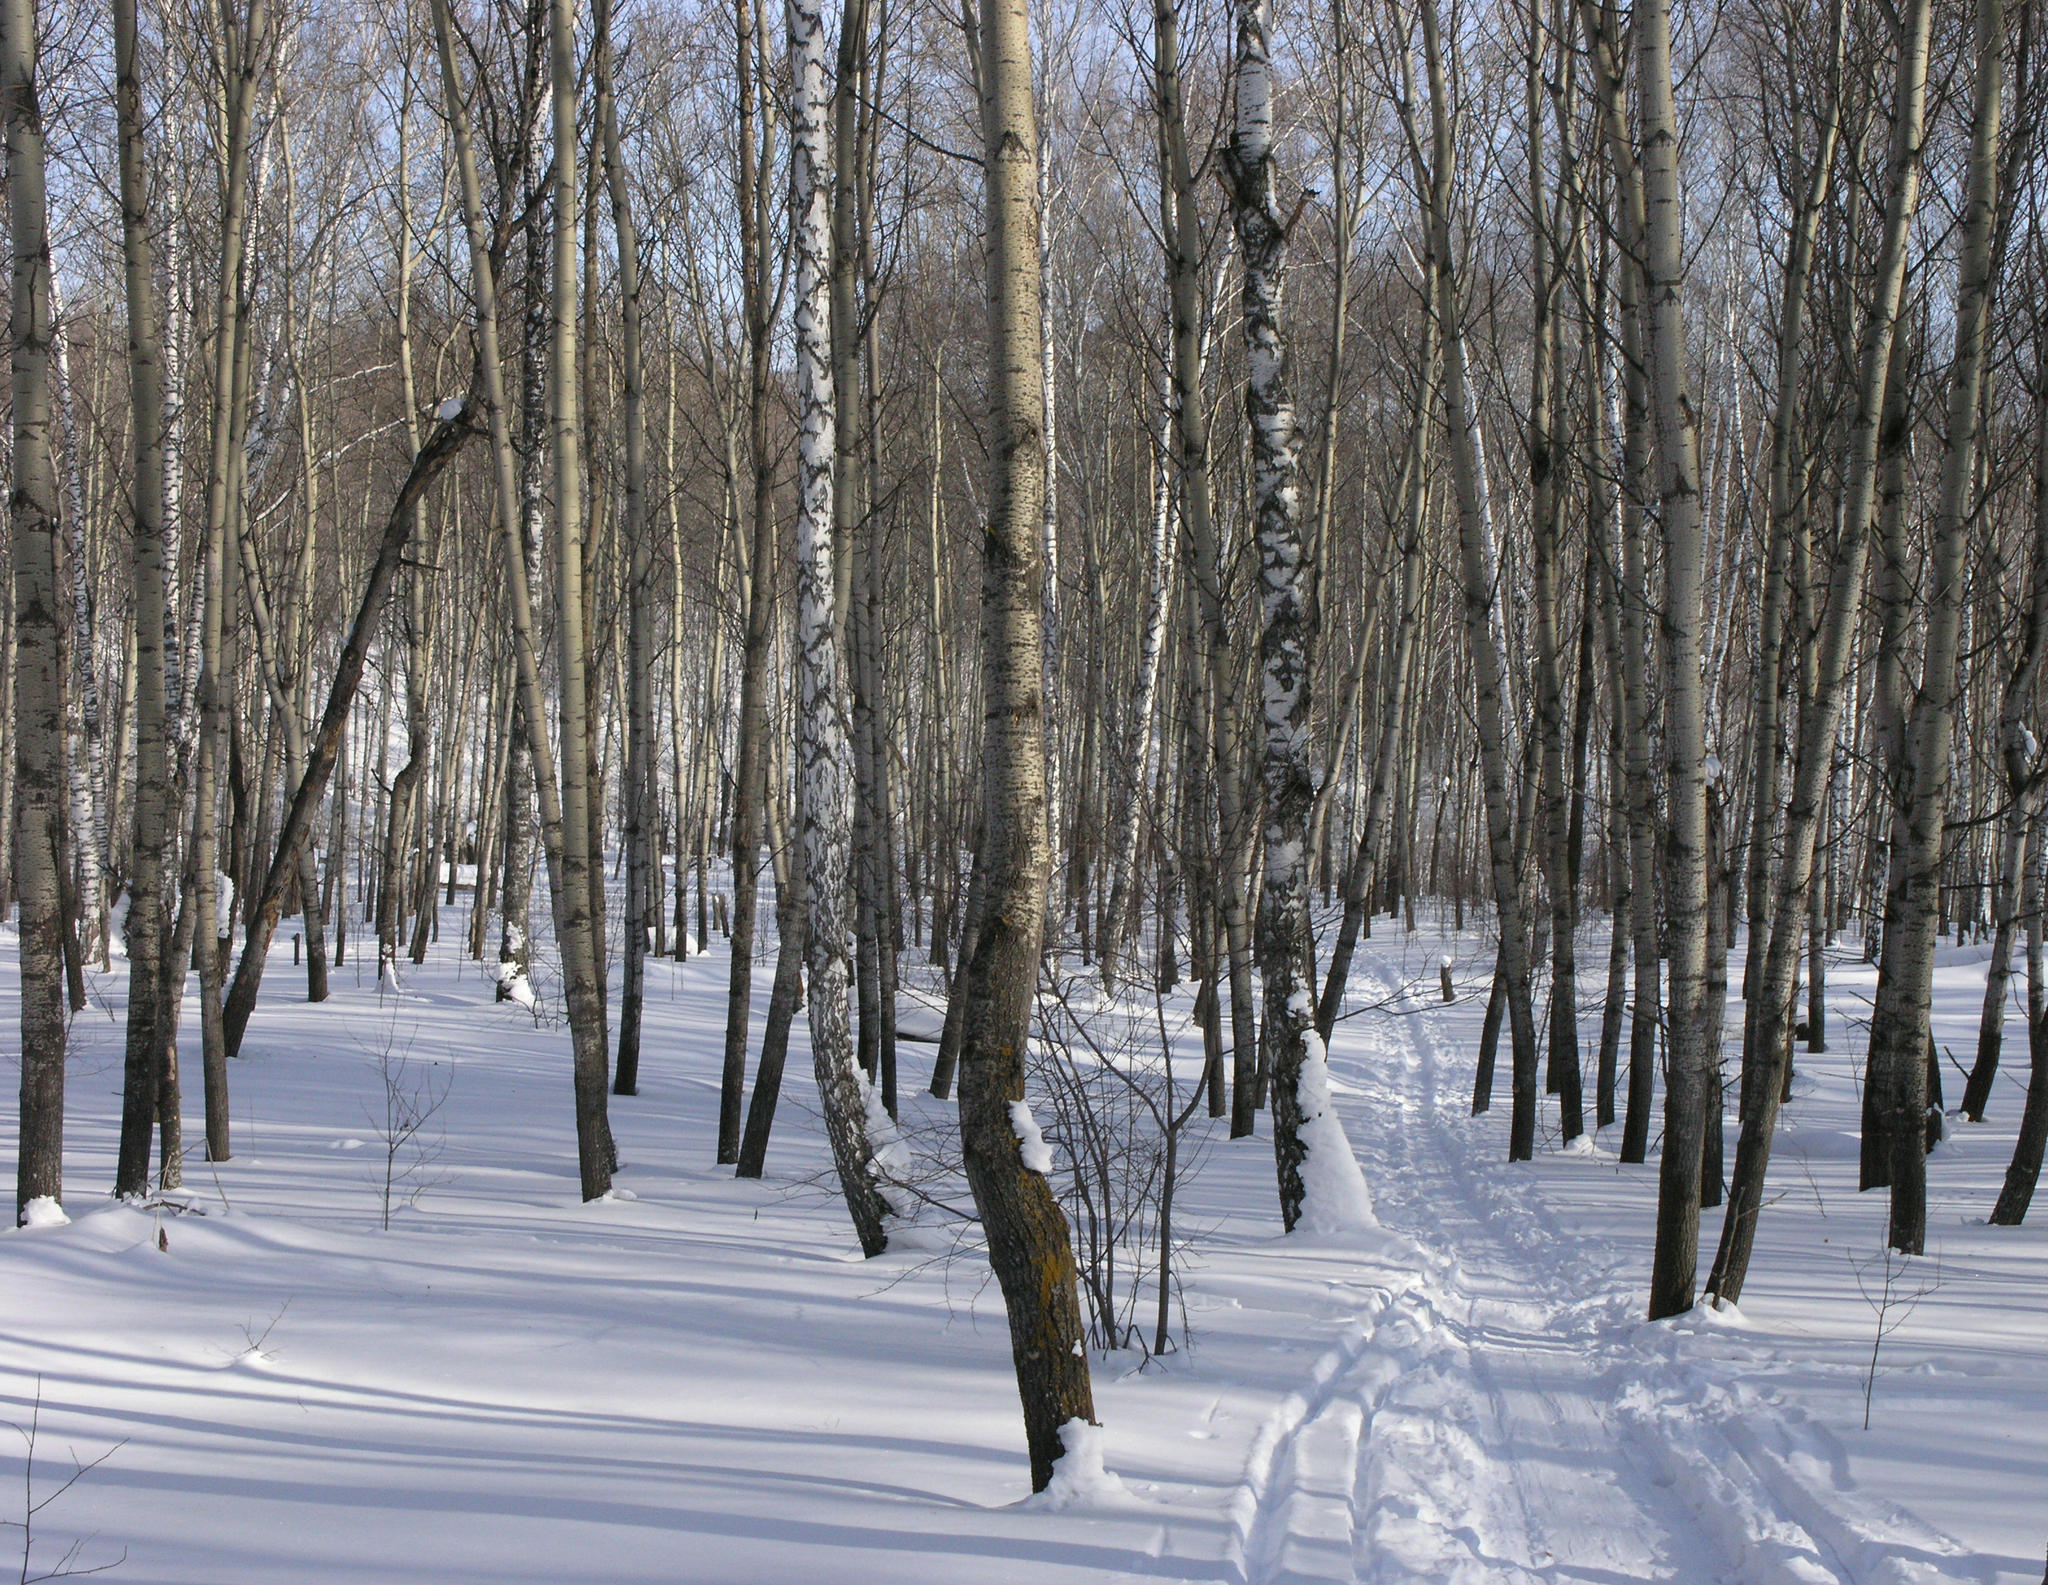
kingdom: Plantae
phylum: Tracheophyta
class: Magnoliopsida
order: Malpighiales
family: Salicaceae
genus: Populus
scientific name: Populus tremula
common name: European aspen
